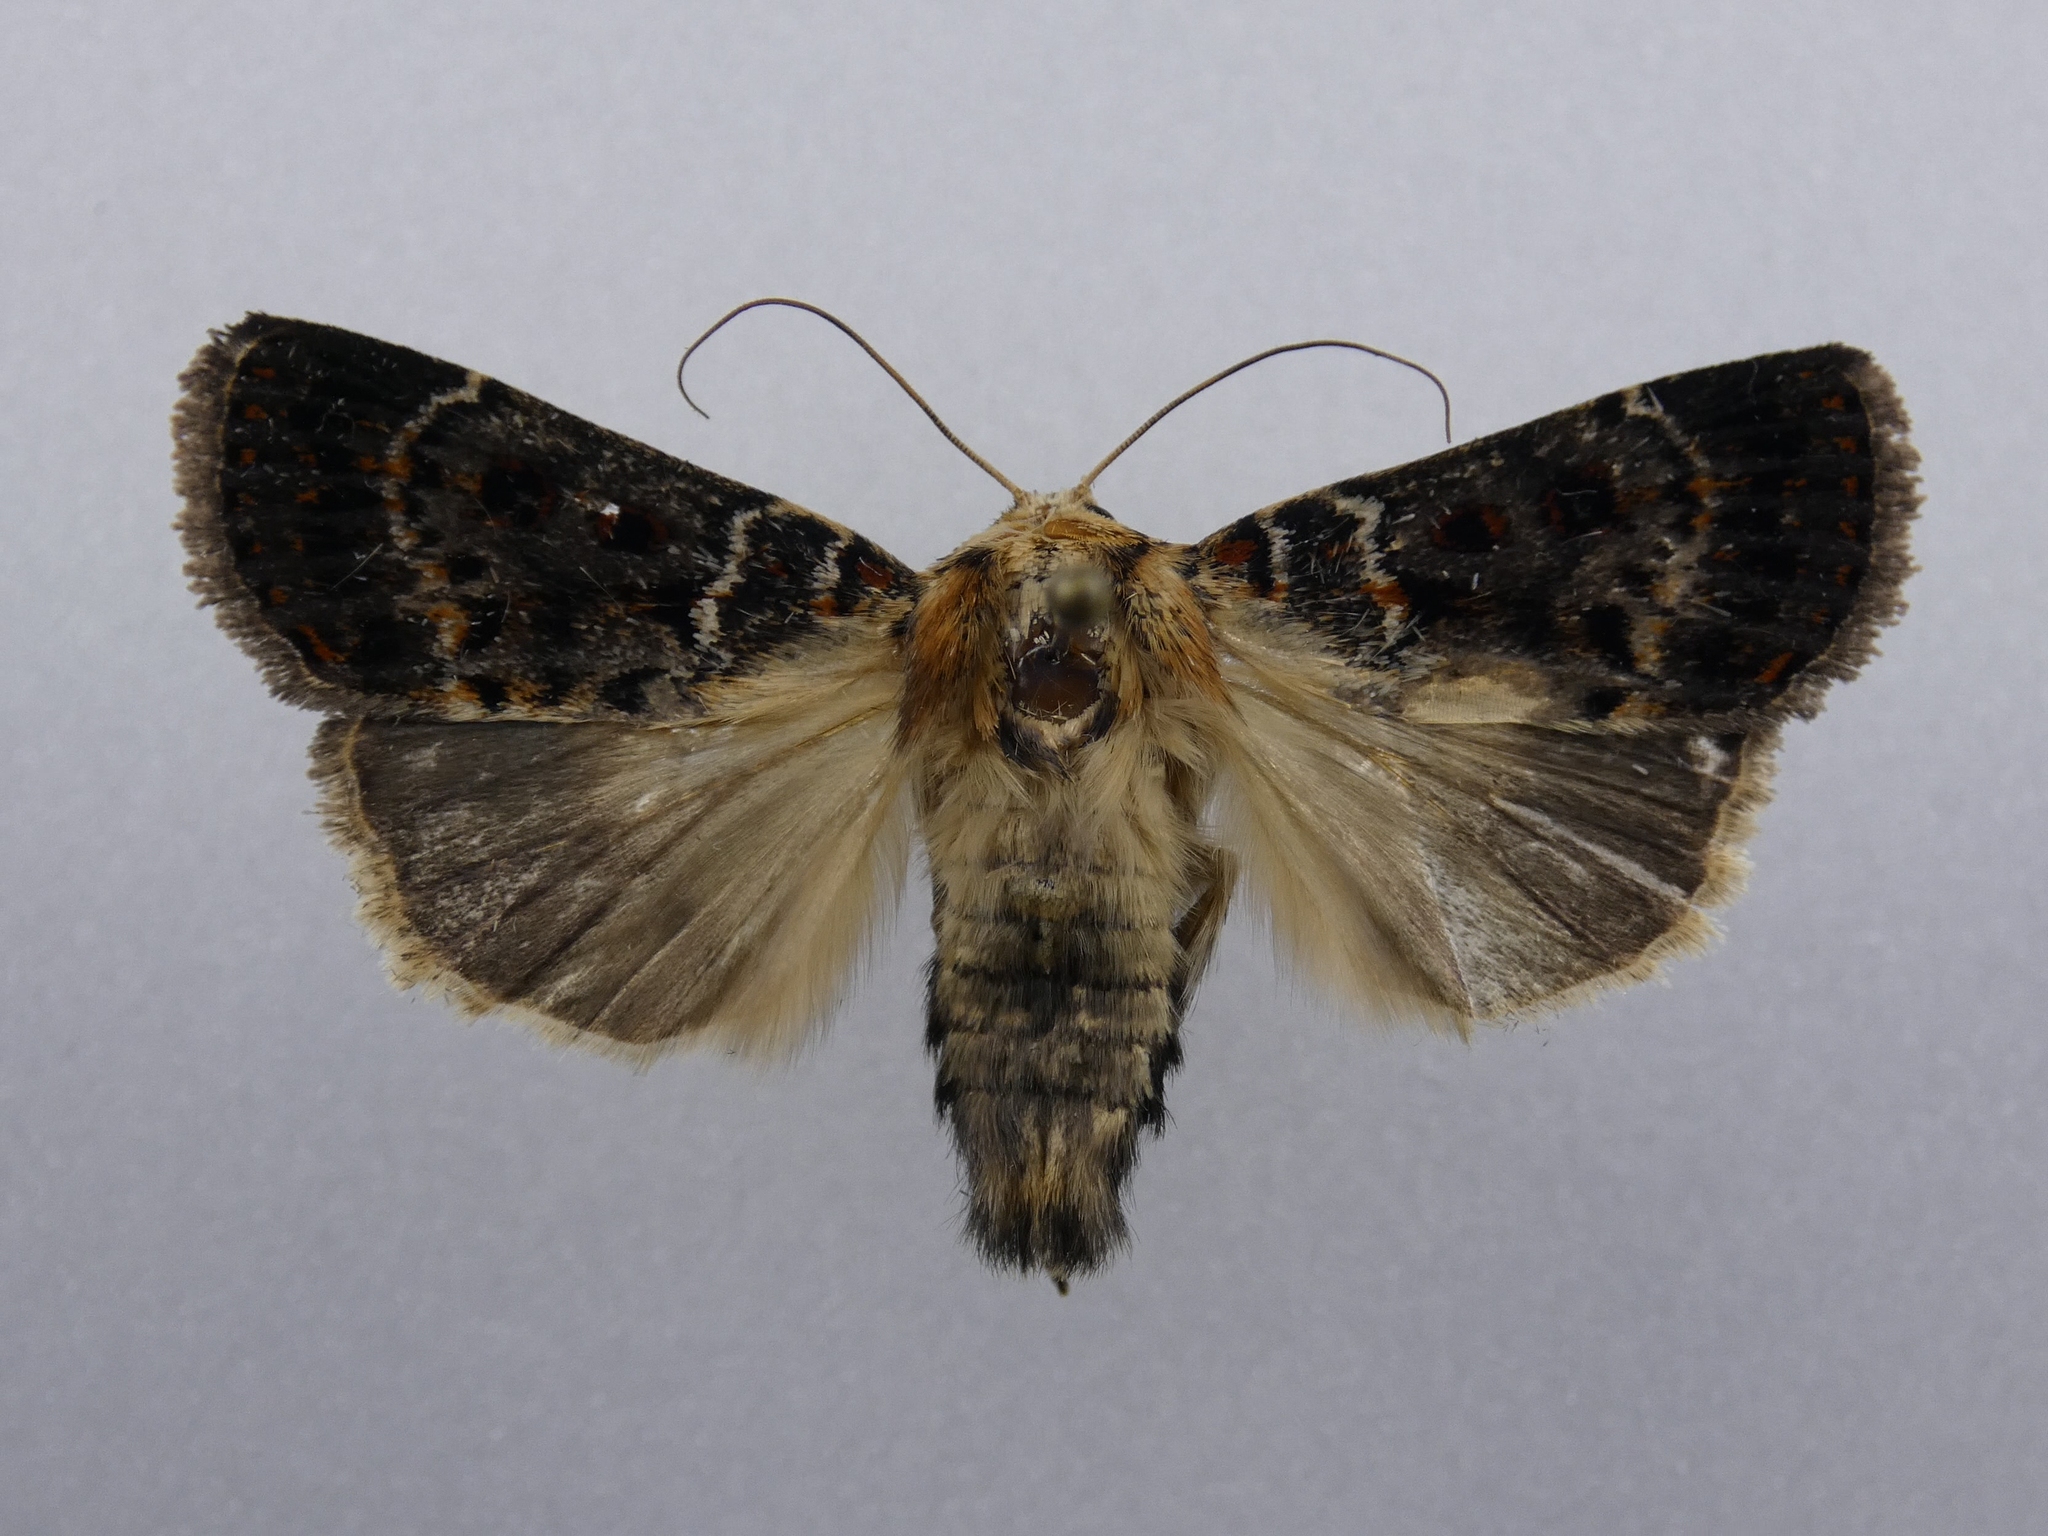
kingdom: Animalia
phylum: Arthropoda
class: Insecta
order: Lepidoptera
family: Noctuidae
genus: Proteuxoa
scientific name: Proteuxoa sanguinipuncta
